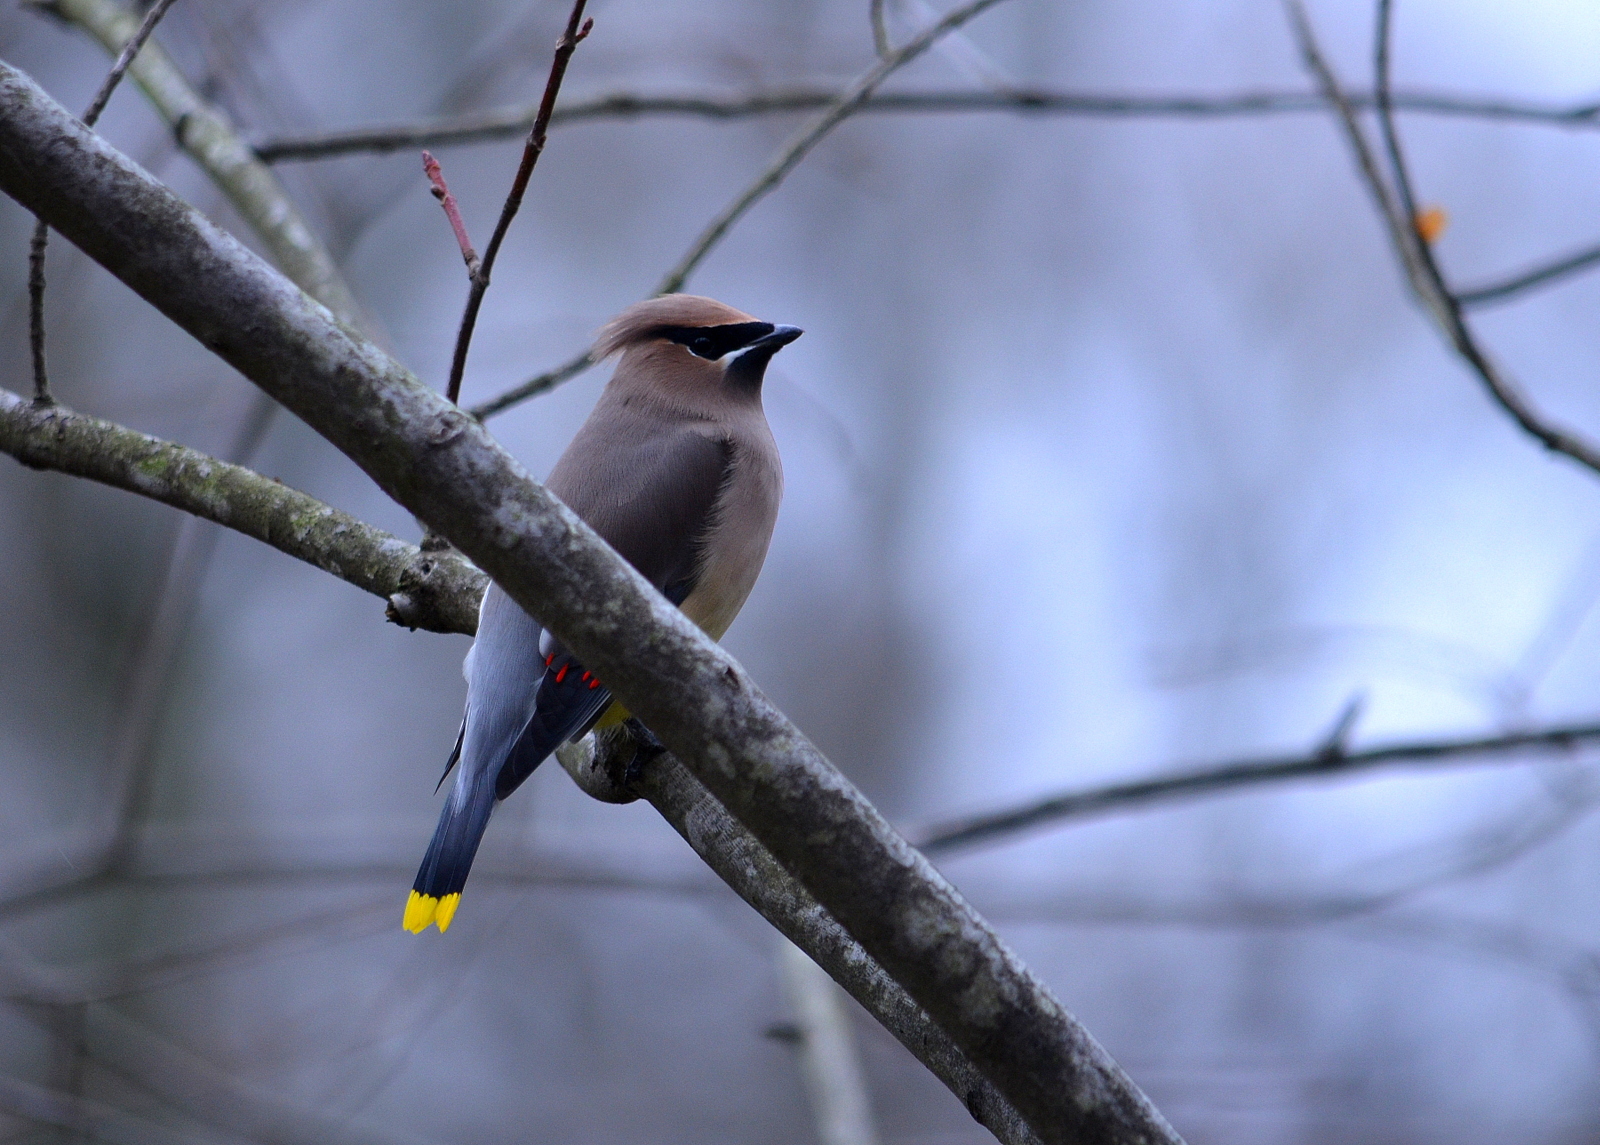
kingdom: Animalia
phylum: Chordata
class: Aves
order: Passeriformes
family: Bombycillidae
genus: Bombycilla
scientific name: Bombycilla cedrorum
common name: Cedar waxwing
